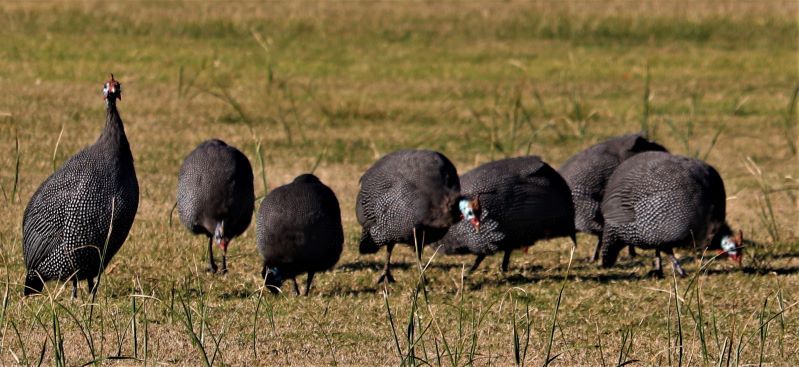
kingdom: Animalia
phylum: Chordata
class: Aves
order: Galliformes
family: Numididae
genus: Numida
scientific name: Numida meleagris
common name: Helmeted guineafowl
